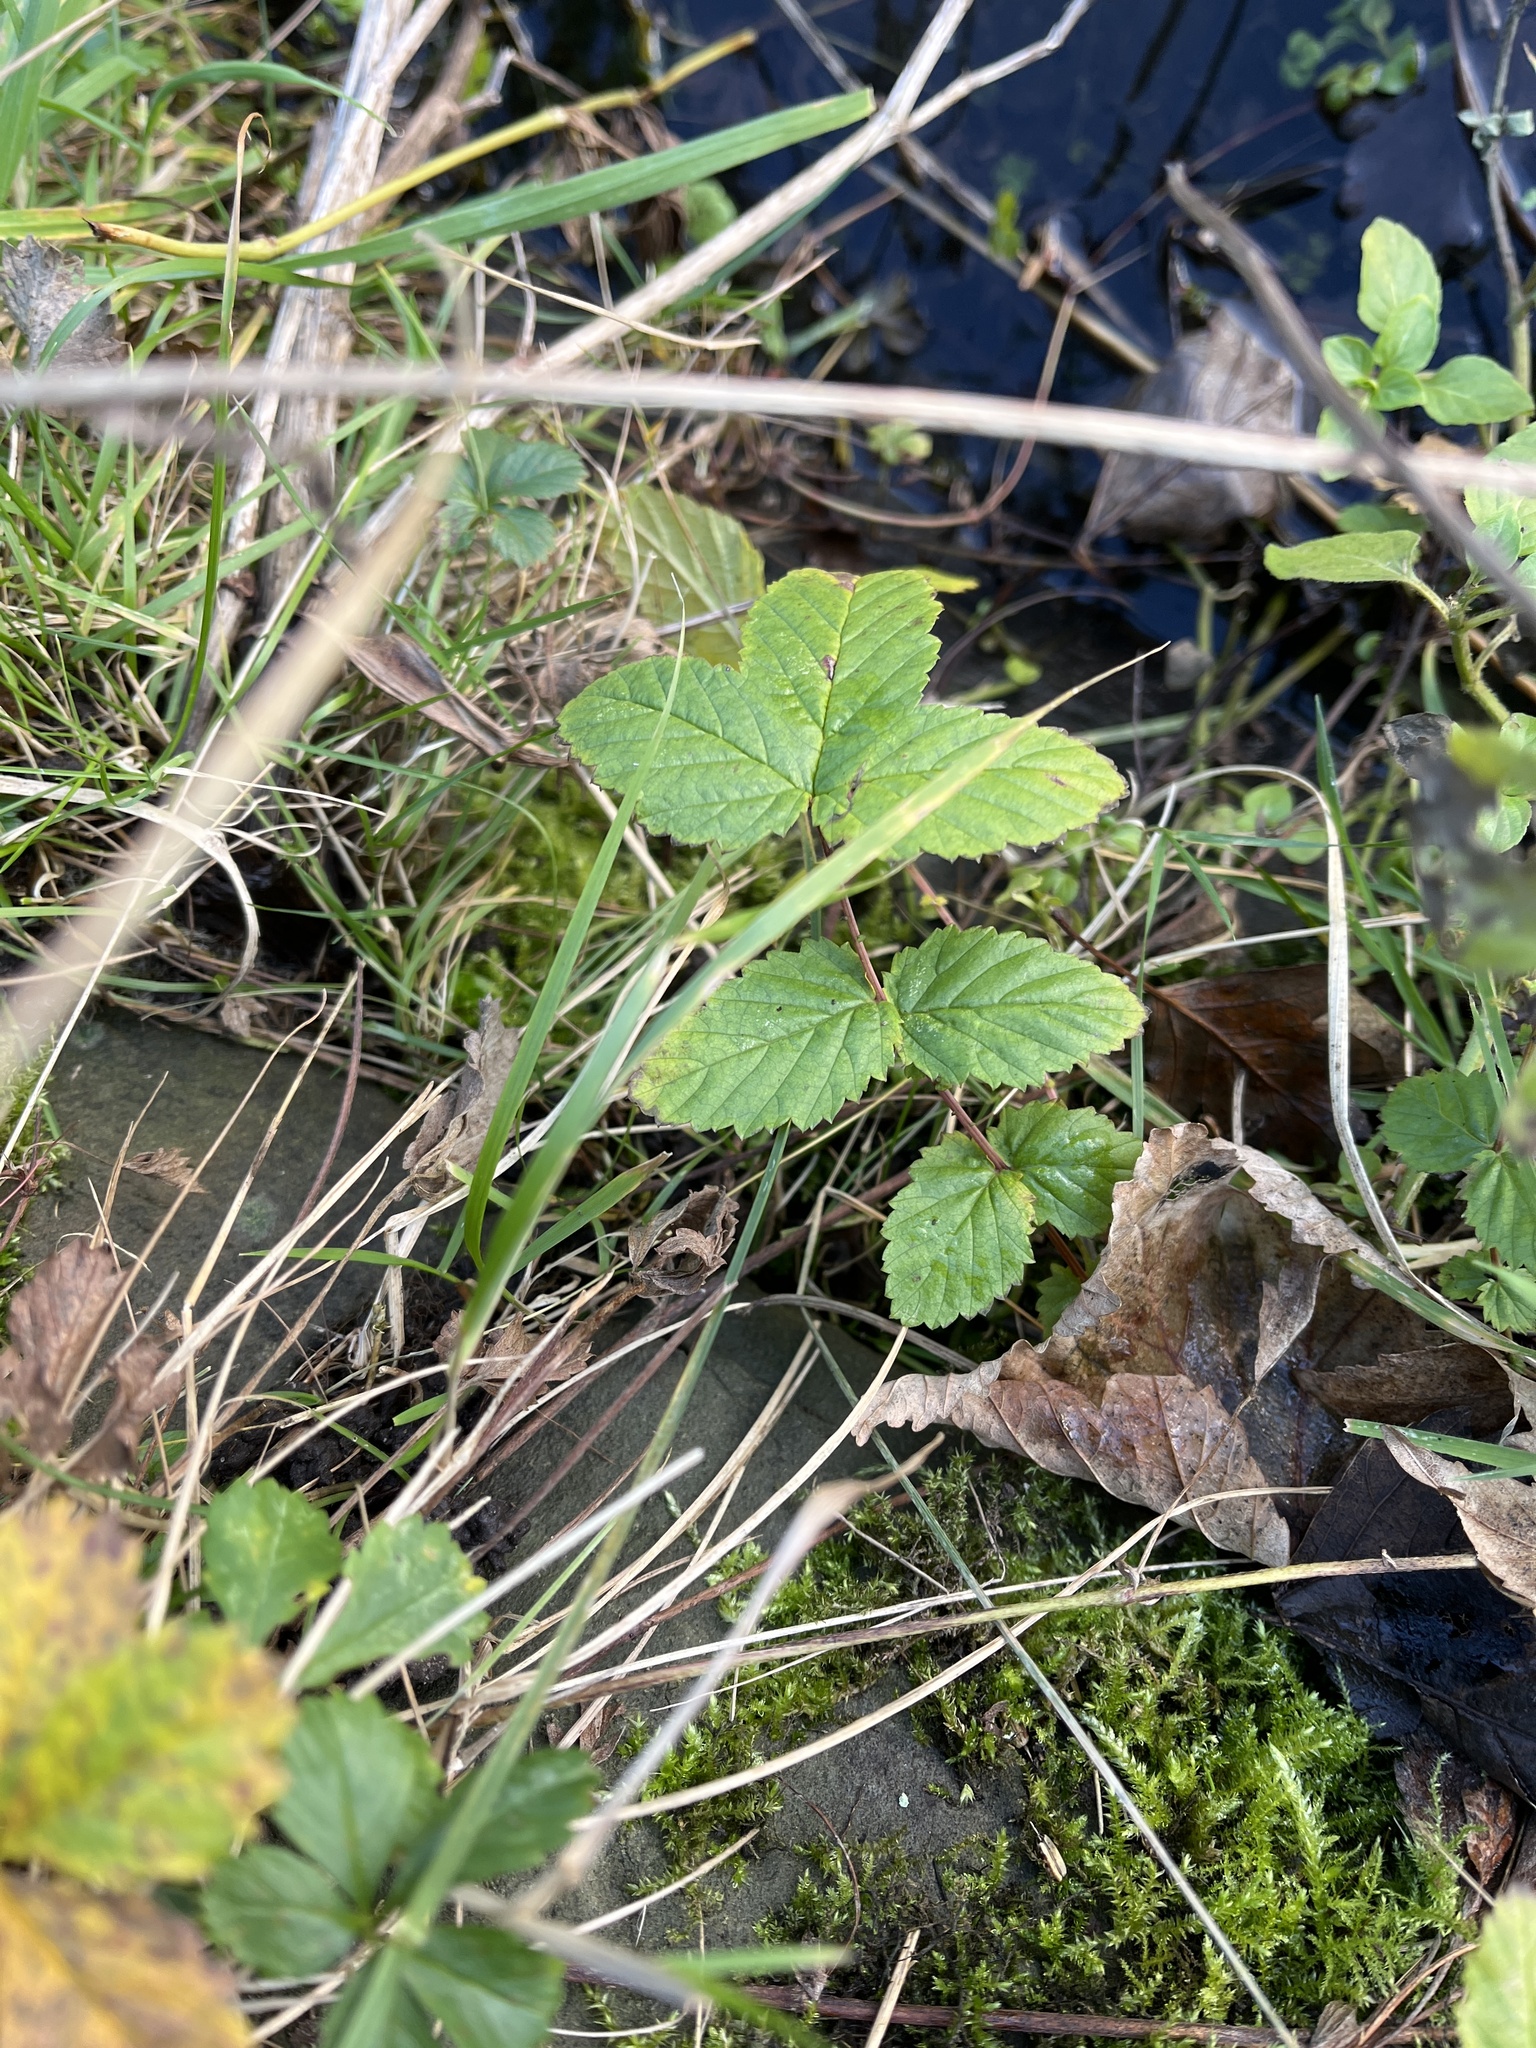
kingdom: Plantae
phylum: Tracheophyta
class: Magnoliopsida
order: Rosales
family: Rosaceae
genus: Filipendula
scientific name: Filipendula ulmaria
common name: Meadowsweet
